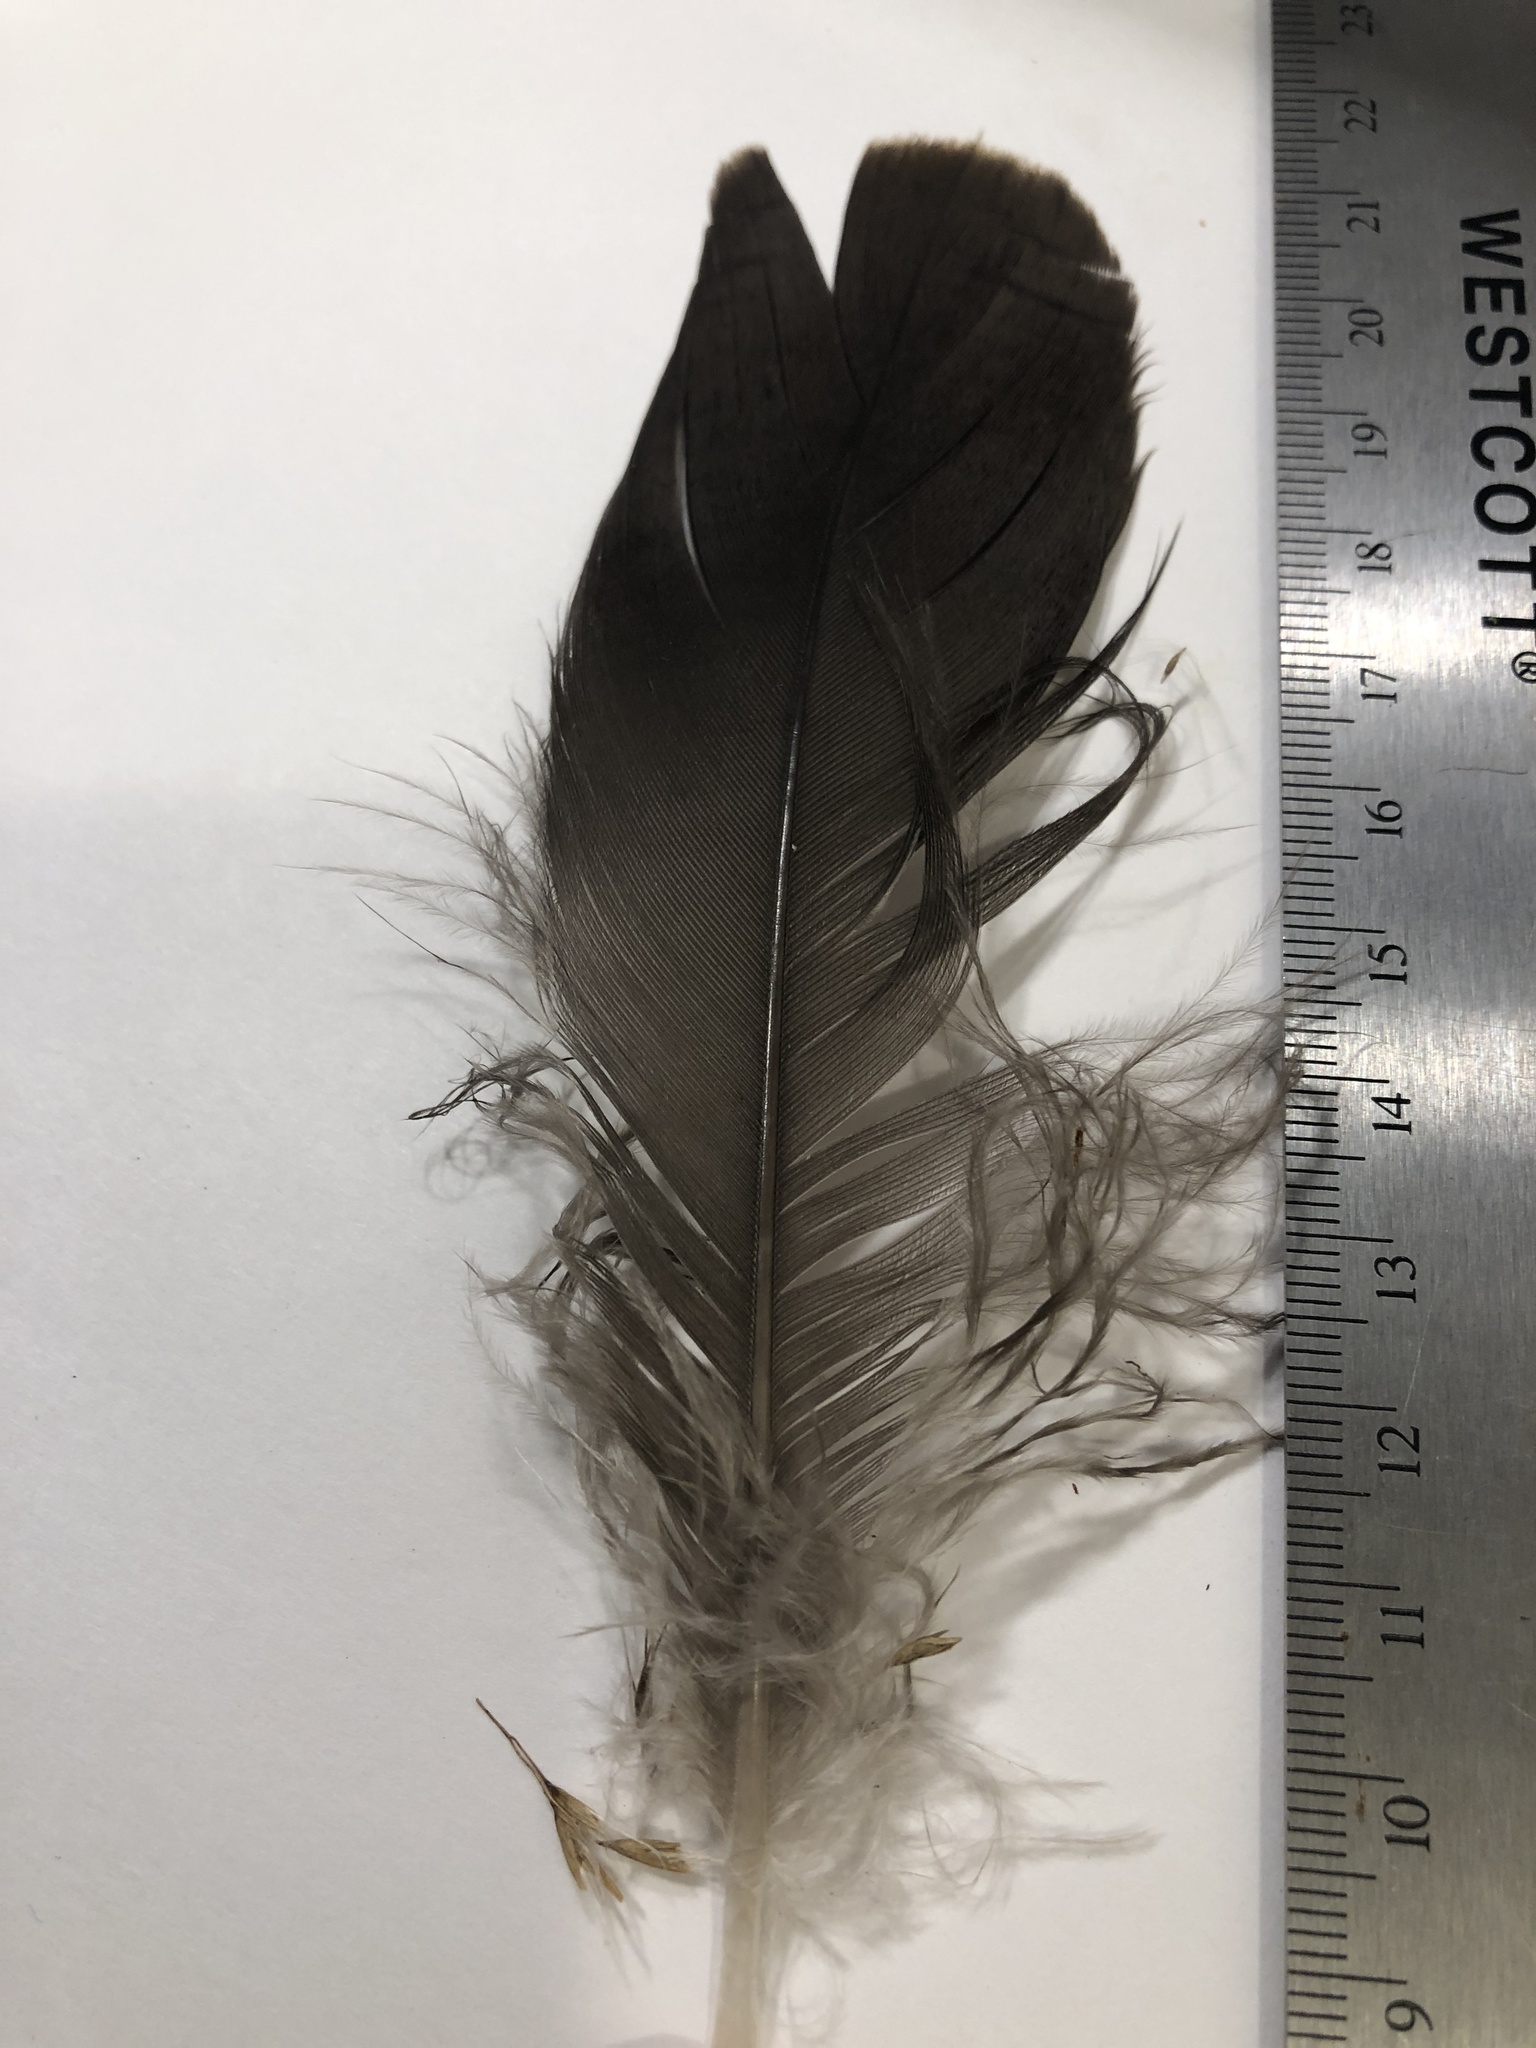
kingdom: Animalia
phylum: Chordata
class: Aves
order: Anseriformes
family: Anatidae
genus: Branta
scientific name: Branta canadensis
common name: Canada goose
